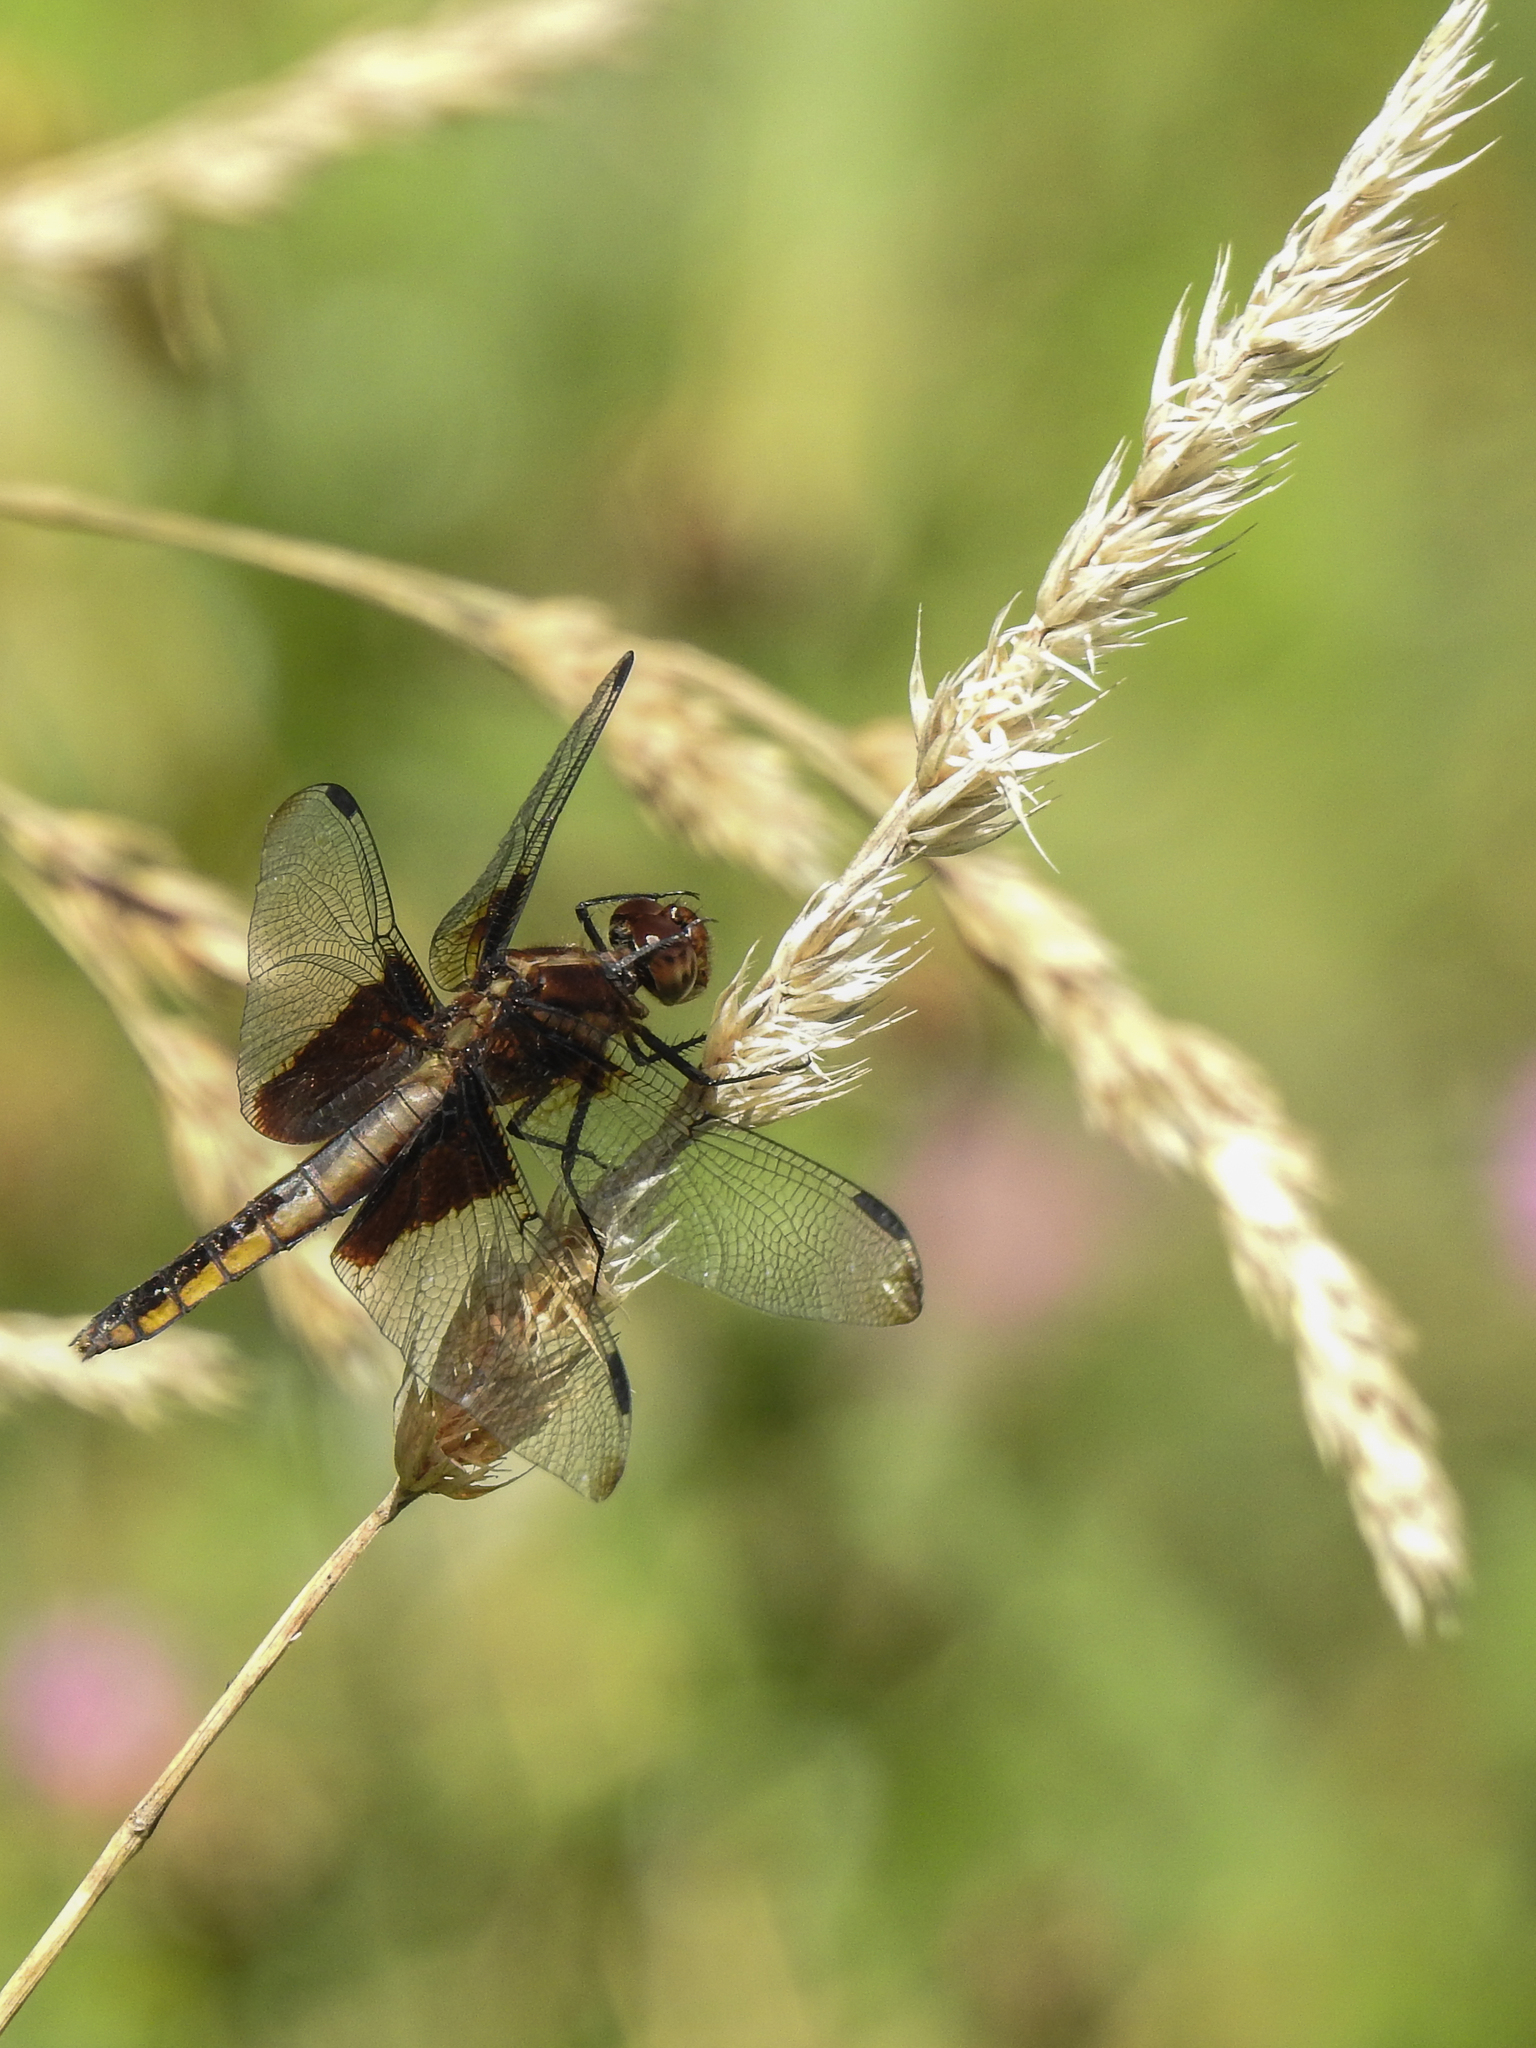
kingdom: Animalia
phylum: Arthropoda
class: Insecta
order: Odonata
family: Libellulidae
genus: Libellula
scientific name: Libellula luctuosa
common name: Widow skimmer
